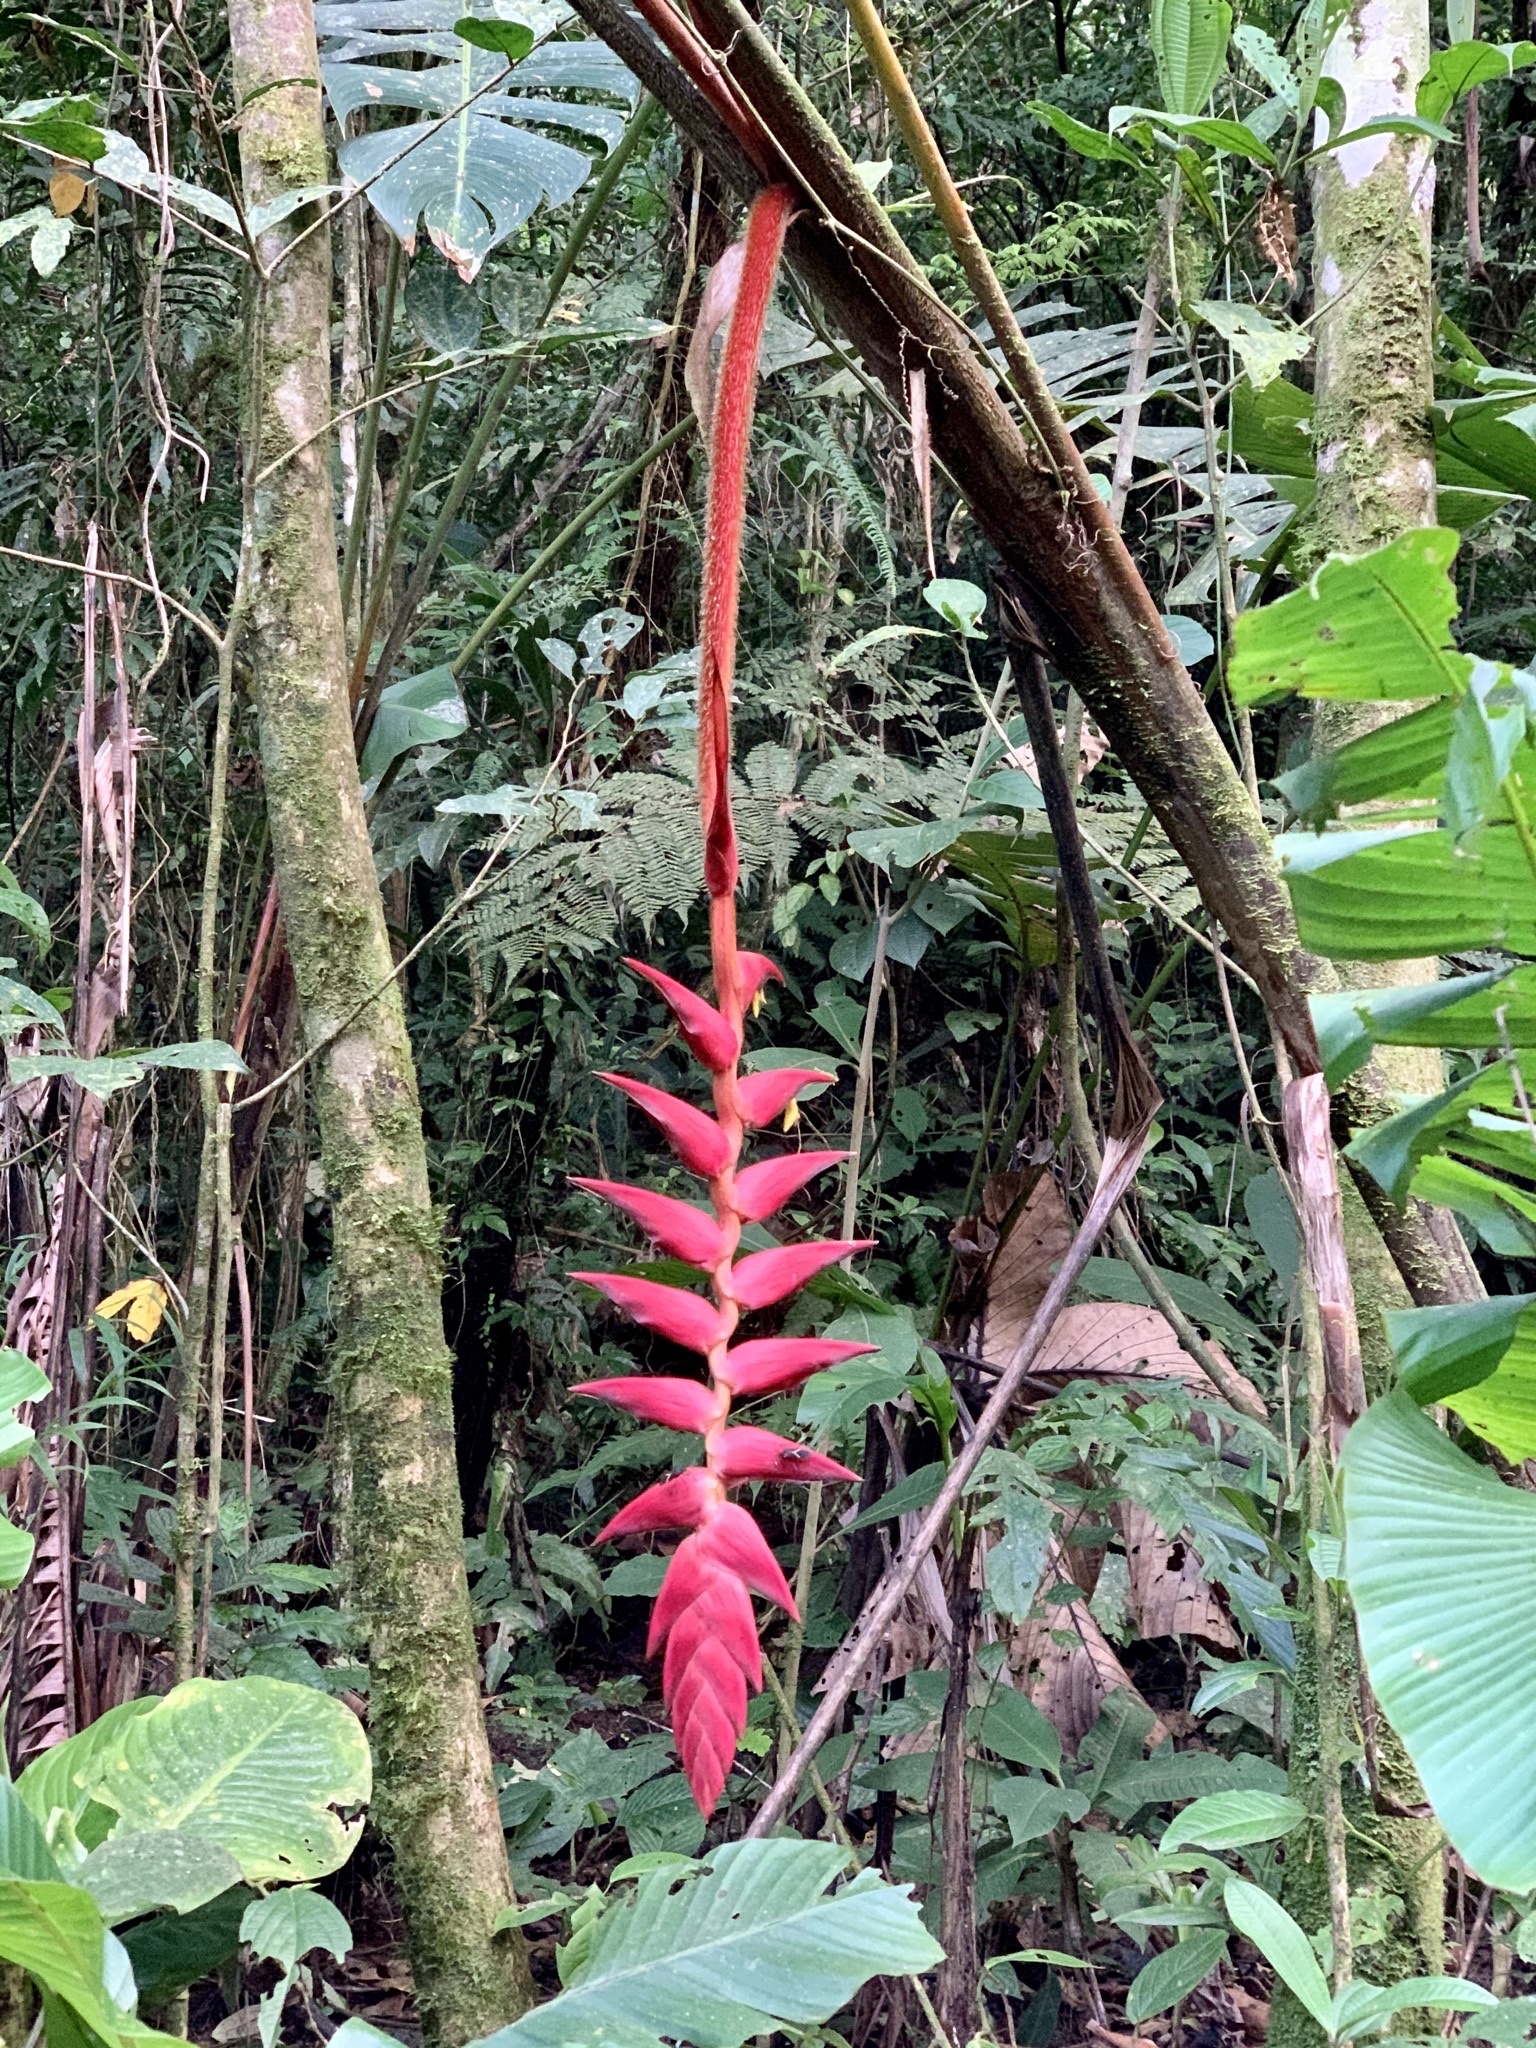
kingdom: Plantae
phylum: Tracheophyta
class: Liliopsida
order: Zingiberales
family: Heliconiaceae
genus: Heliconia
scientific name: Heliconia ramonensis
